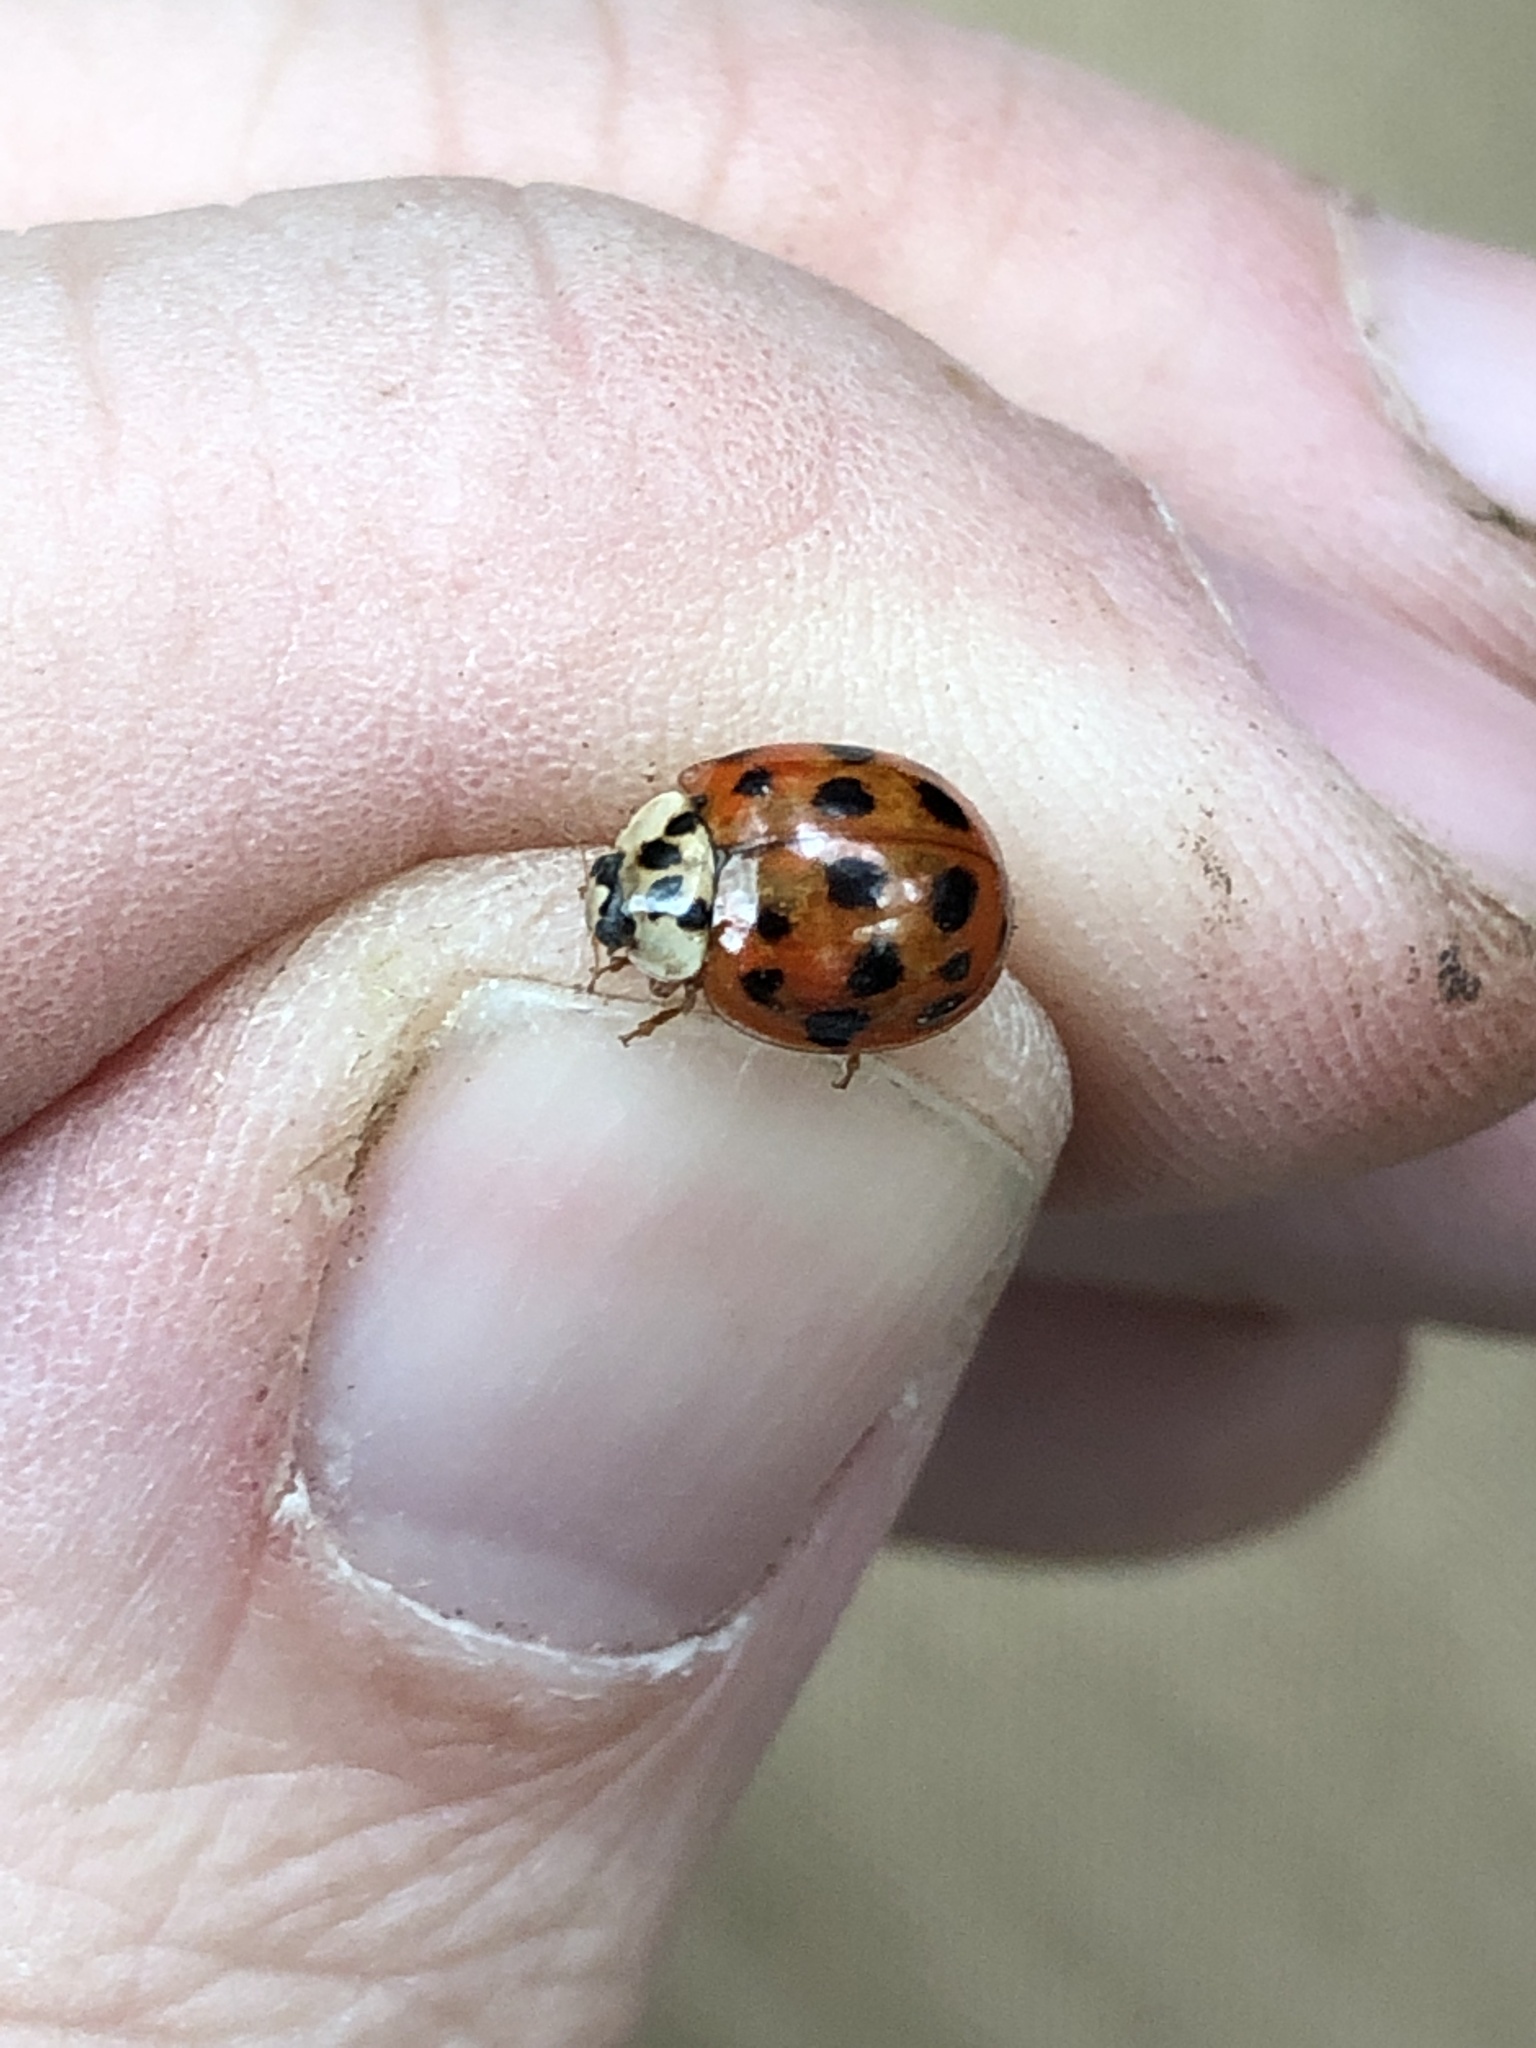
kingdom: Animalia
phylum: Arthropoda
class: Insecta
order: Coleoptera
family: Coccinellidae
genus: Harmonia
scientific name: Harmonia axyridis
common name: Harlequin ladybird
